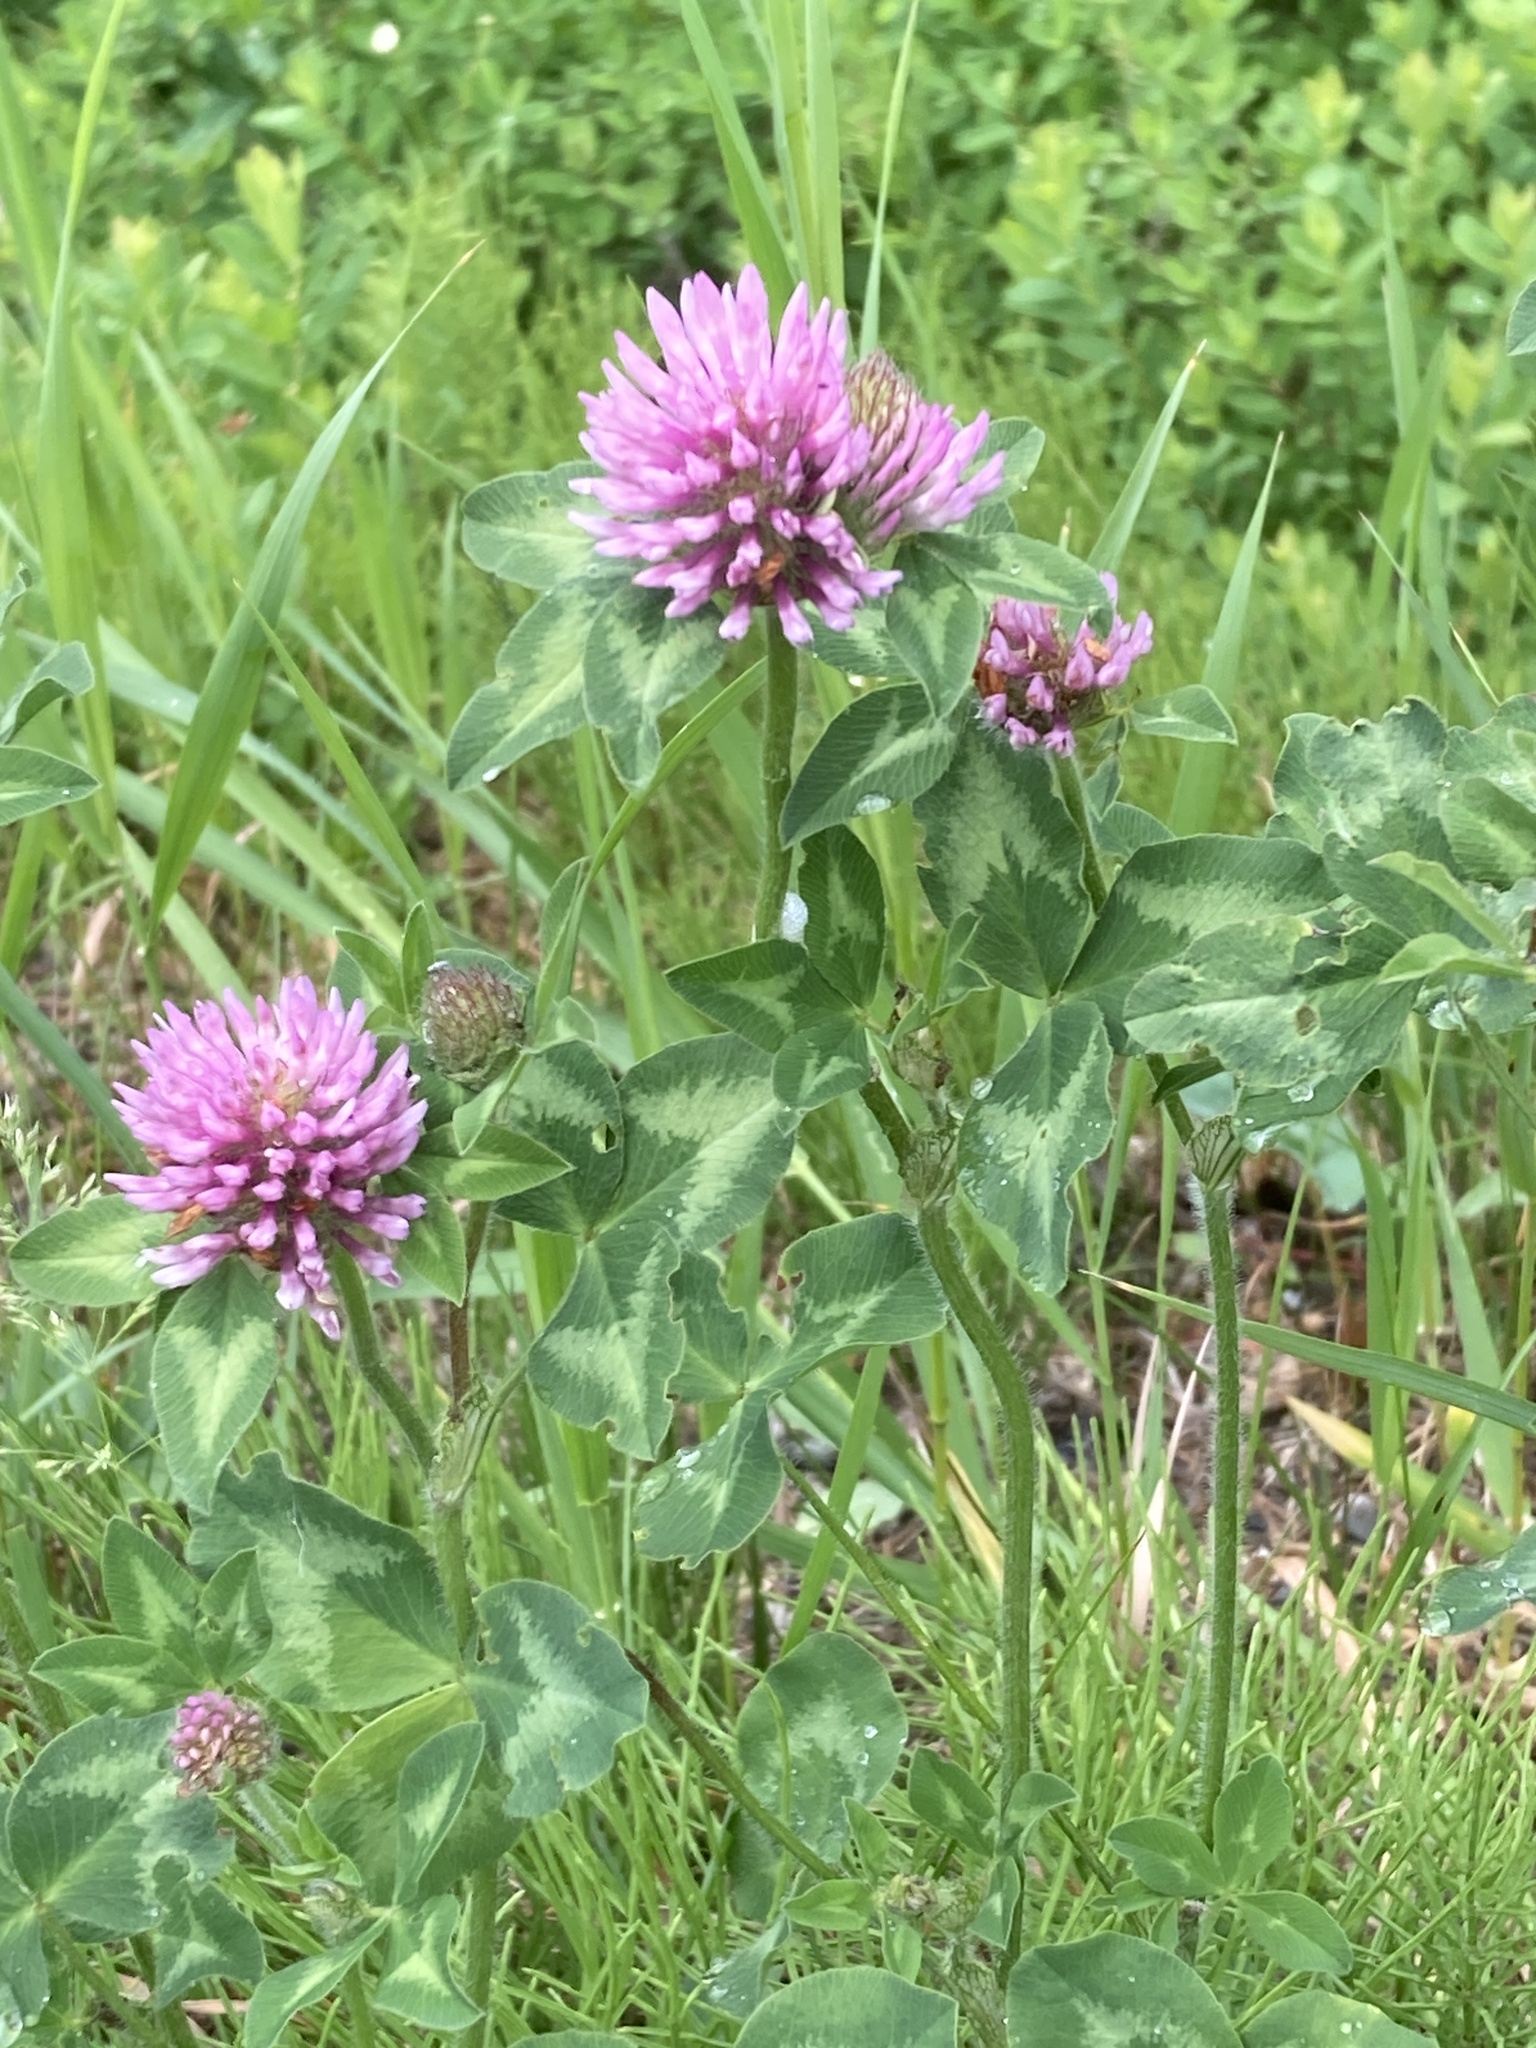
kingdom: Plantae
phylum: Tracheophyta
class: Magnoliopsida
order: Fabales
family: Fabaceae
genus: Trifolium
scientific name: Trifolium pratense
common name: Red clover
